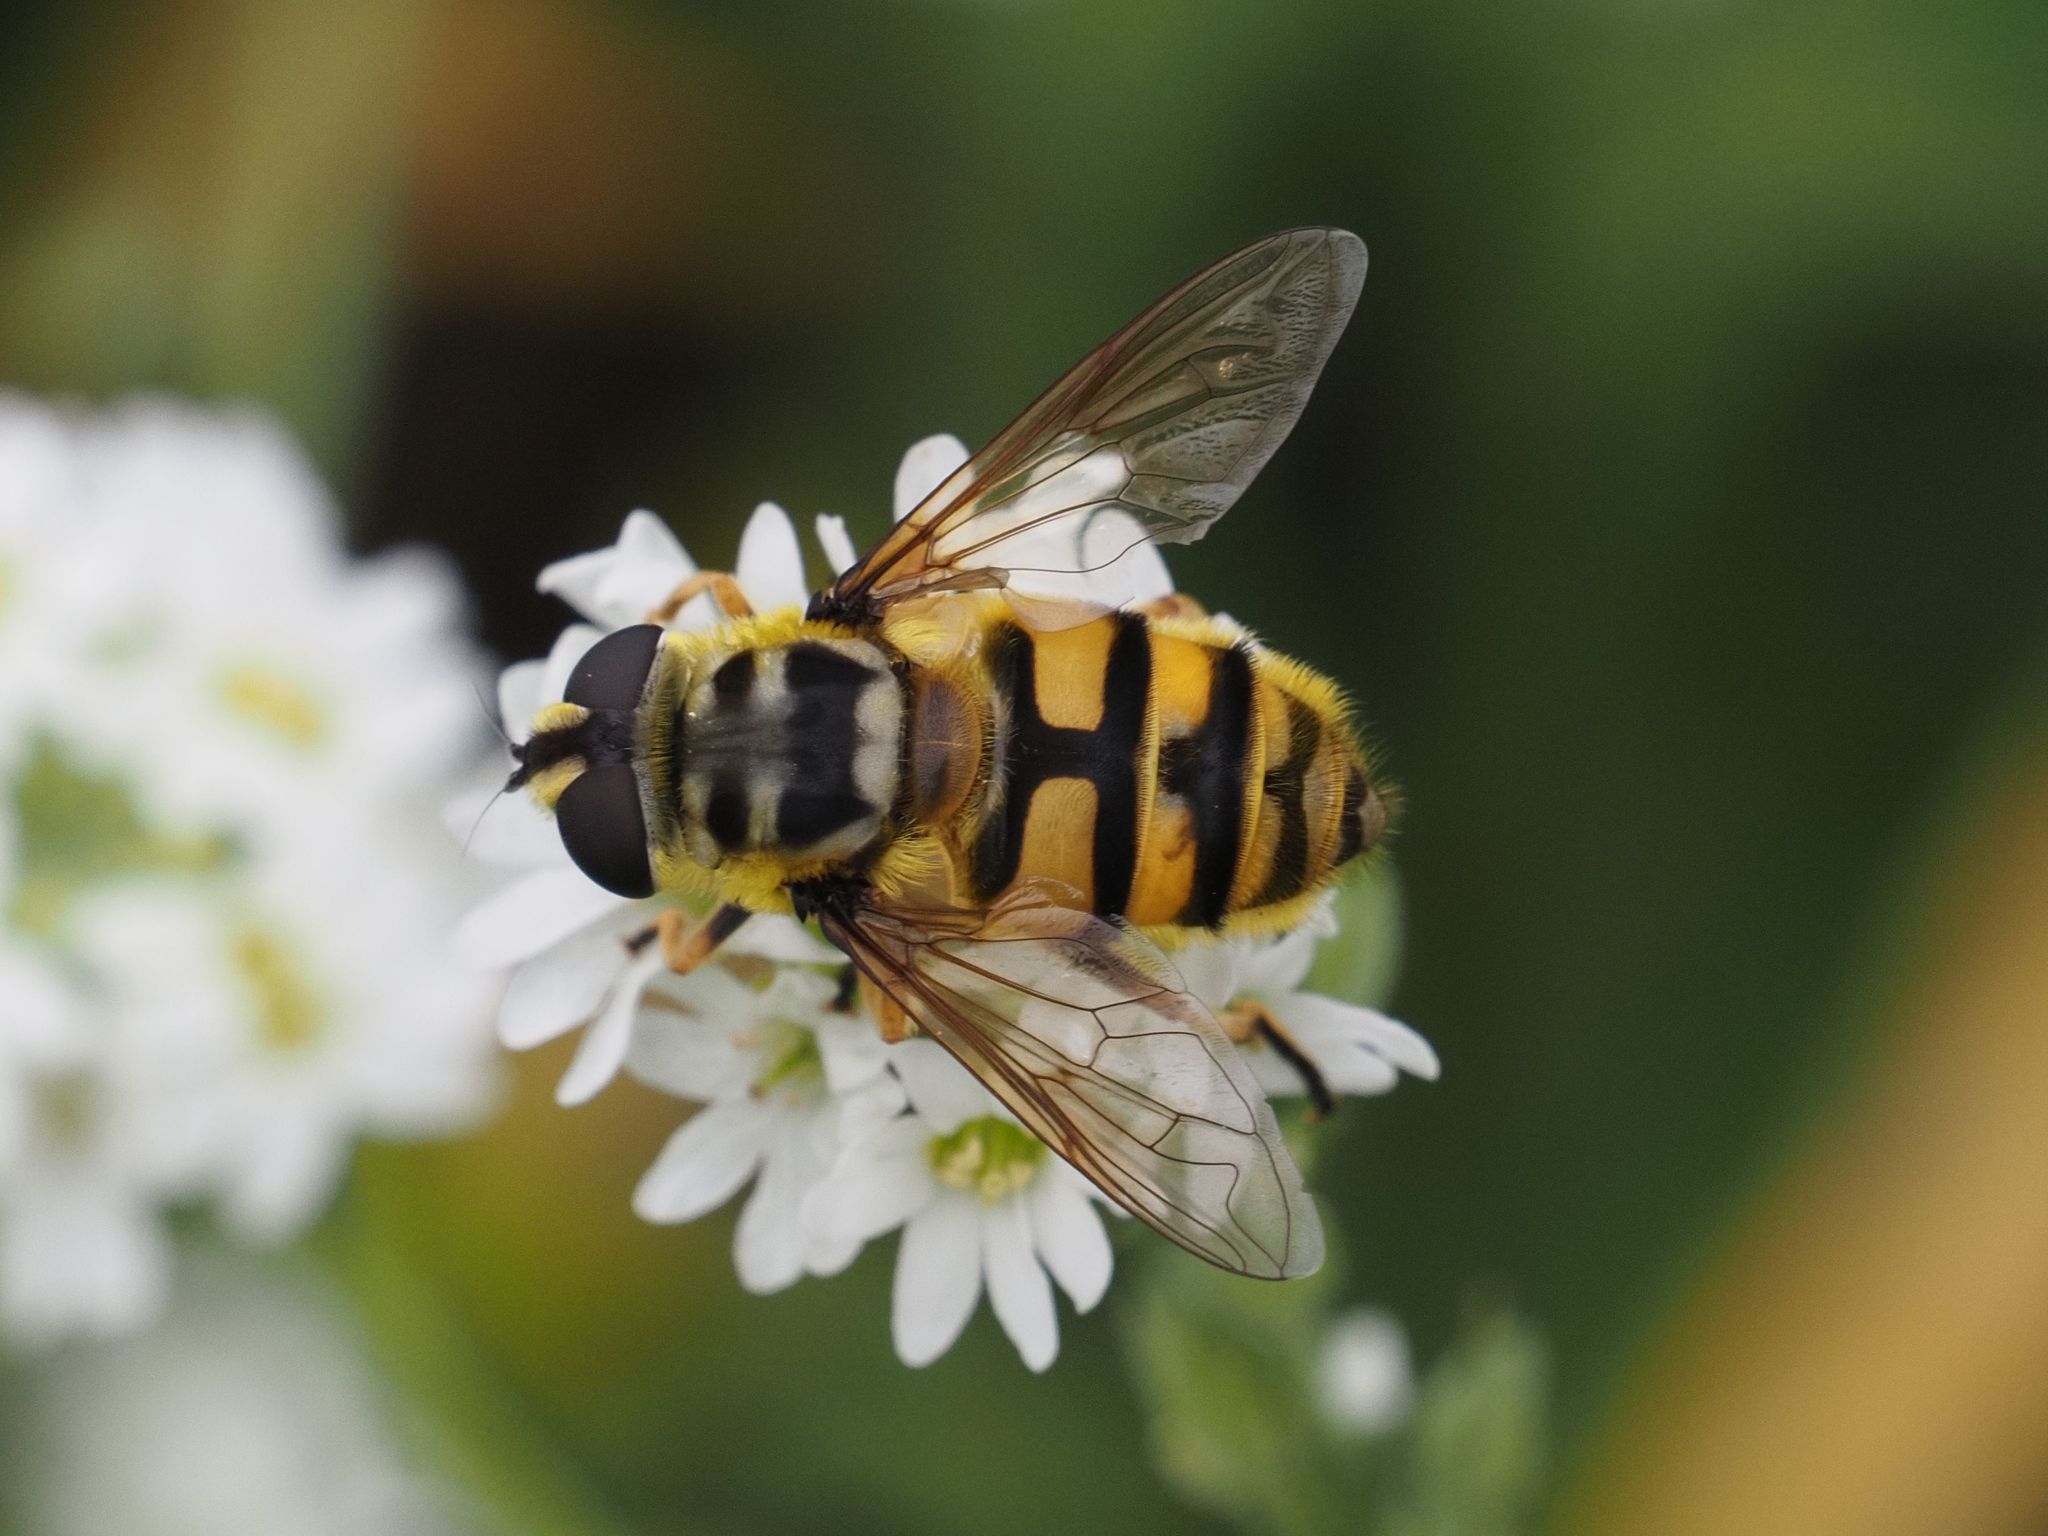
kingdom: Animalia
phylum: Arthropoda
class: Insecta
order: Diptera
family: Syrphidae
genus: Myathropa
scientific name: Myathropa florea
